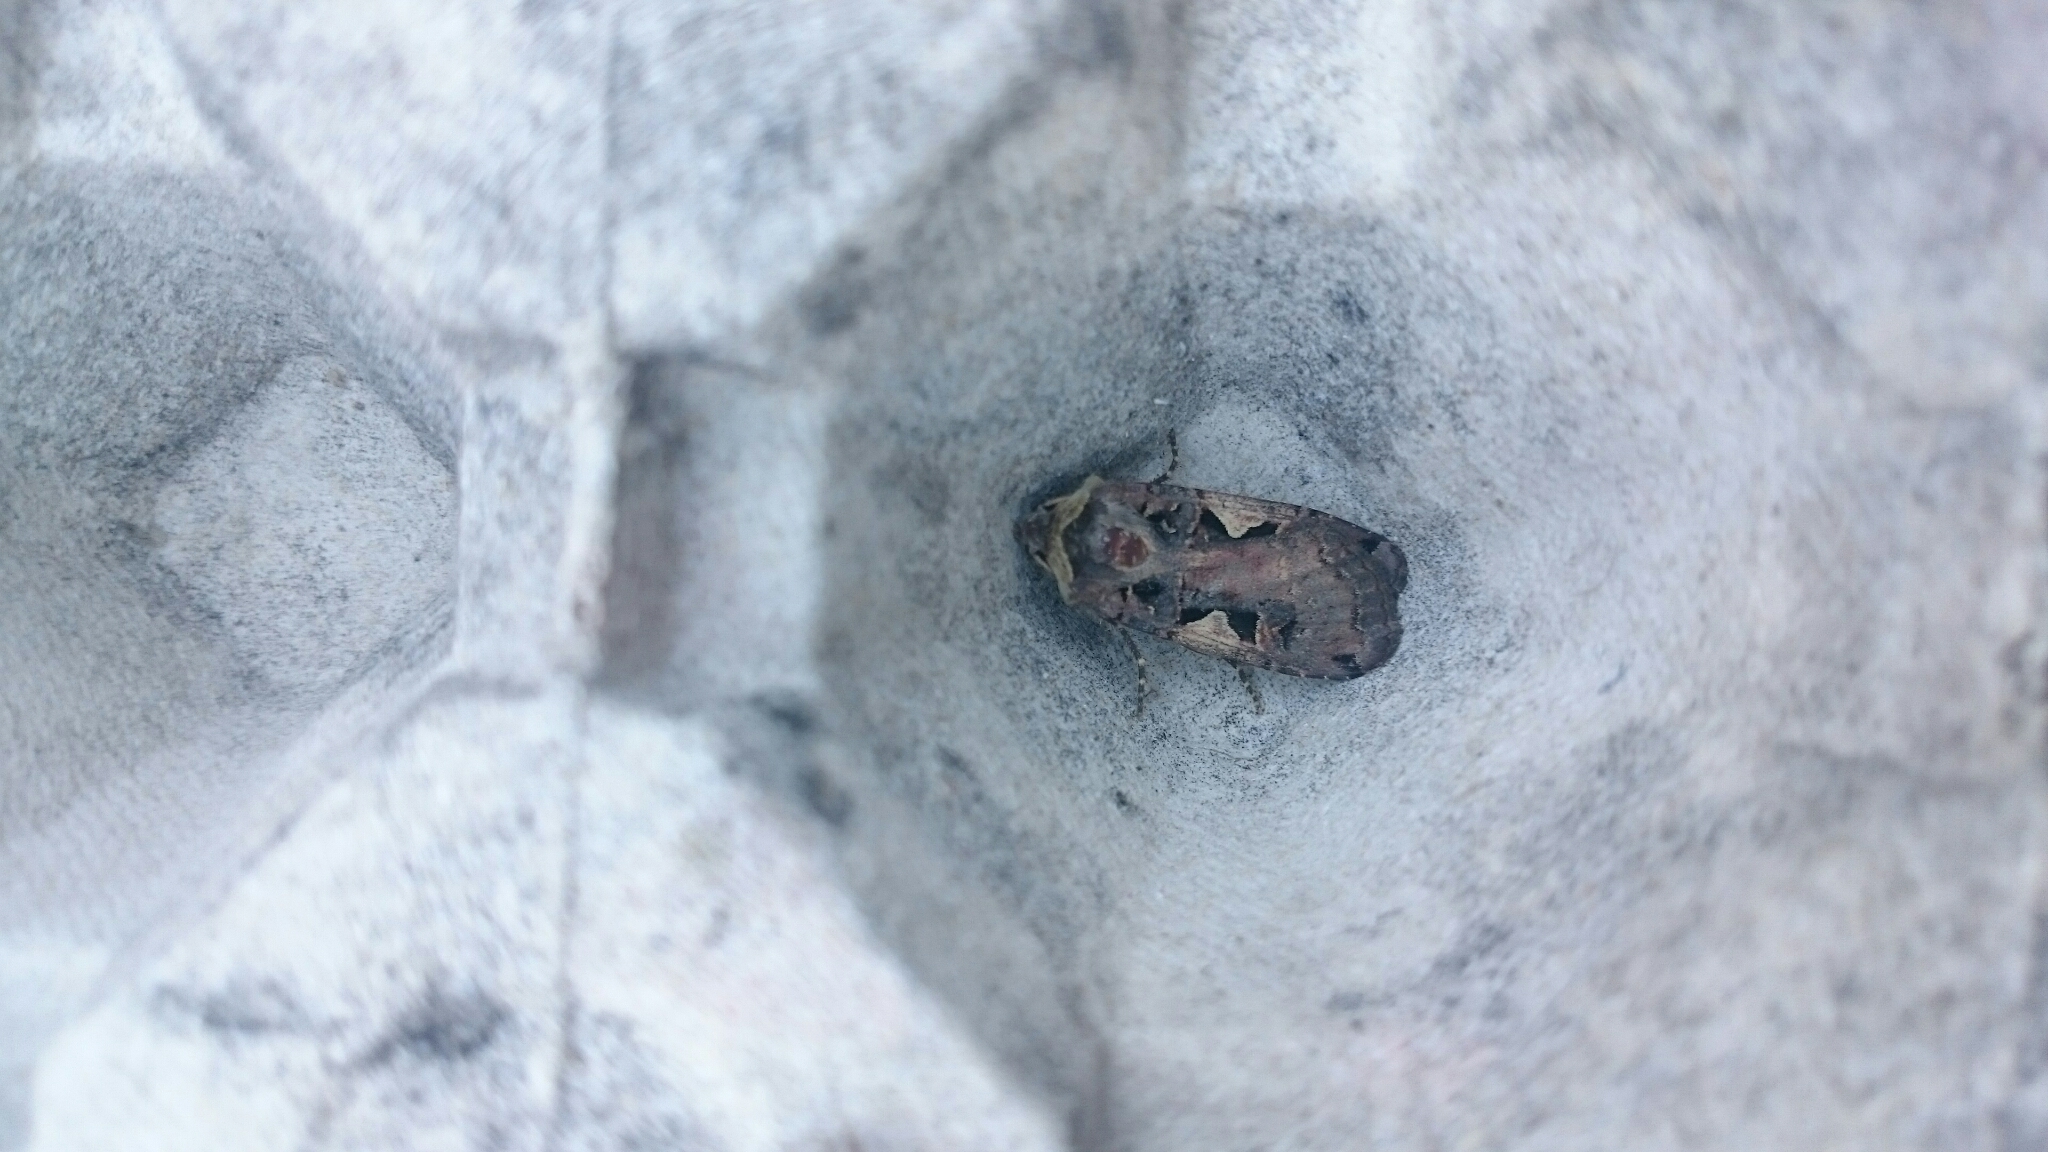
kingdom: Animalia
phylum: Arthropoda
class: Insecta
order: Lepidoptera
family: Noctuidae
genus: Xestia
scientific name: Xestia c-nigrum
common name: Setaceous hebrew character
